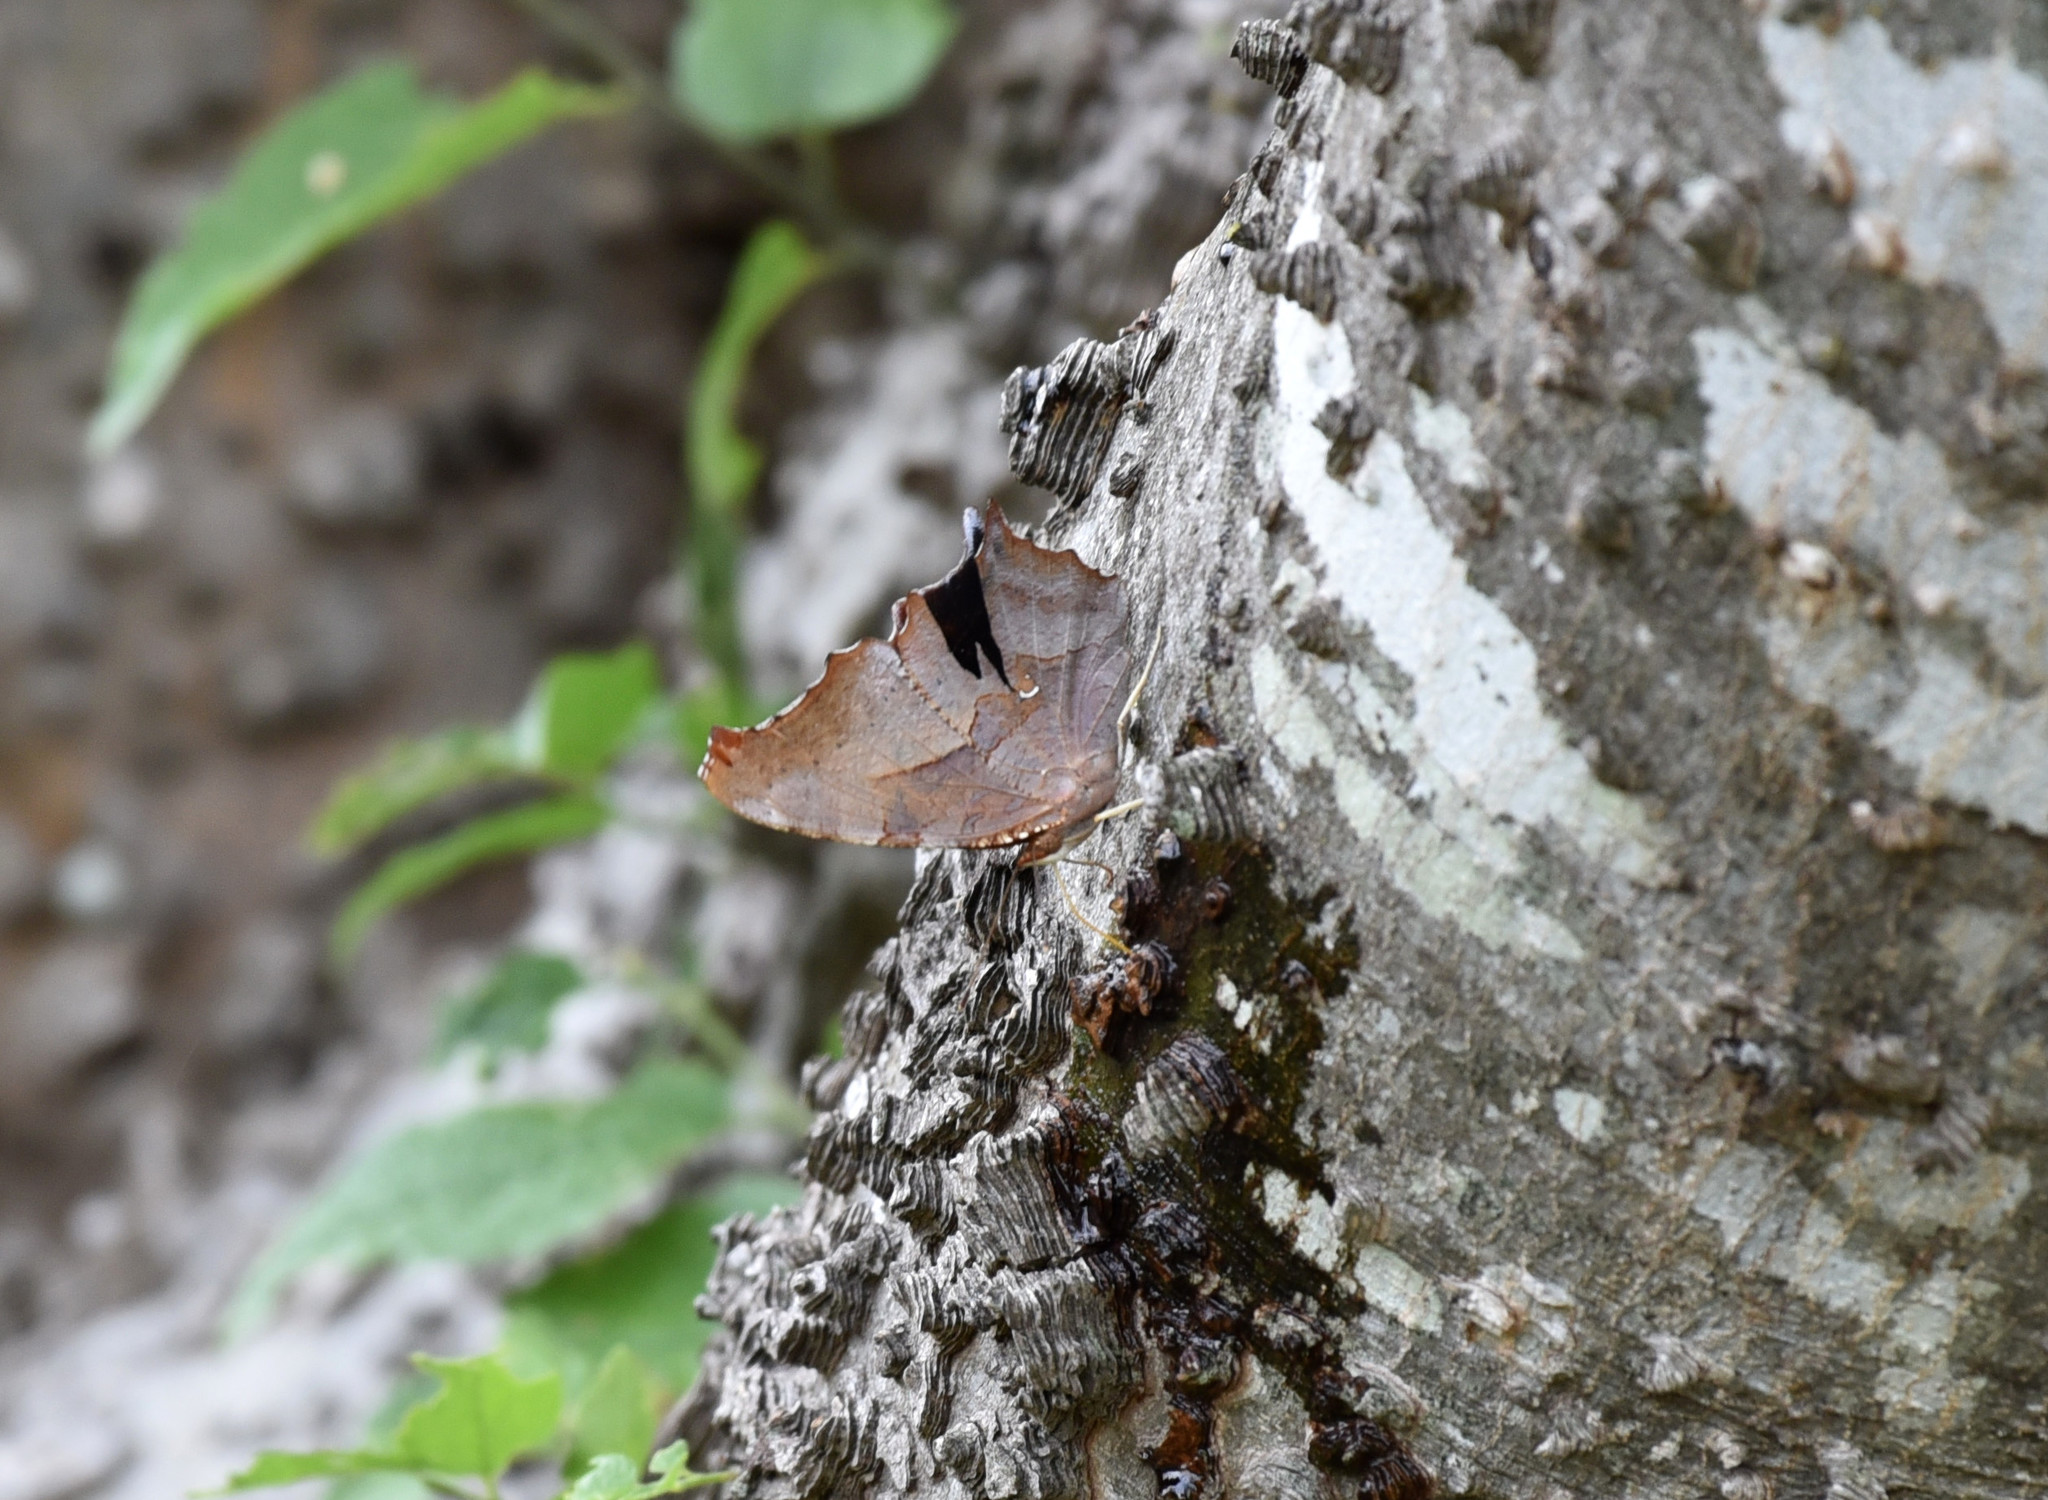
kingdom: Animalia
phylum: Arthropoda
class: Insecta
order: Lepidoptera
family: Nymphalidae
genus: Polygonia
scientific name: Polygonia interrogationis
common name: Question mark
